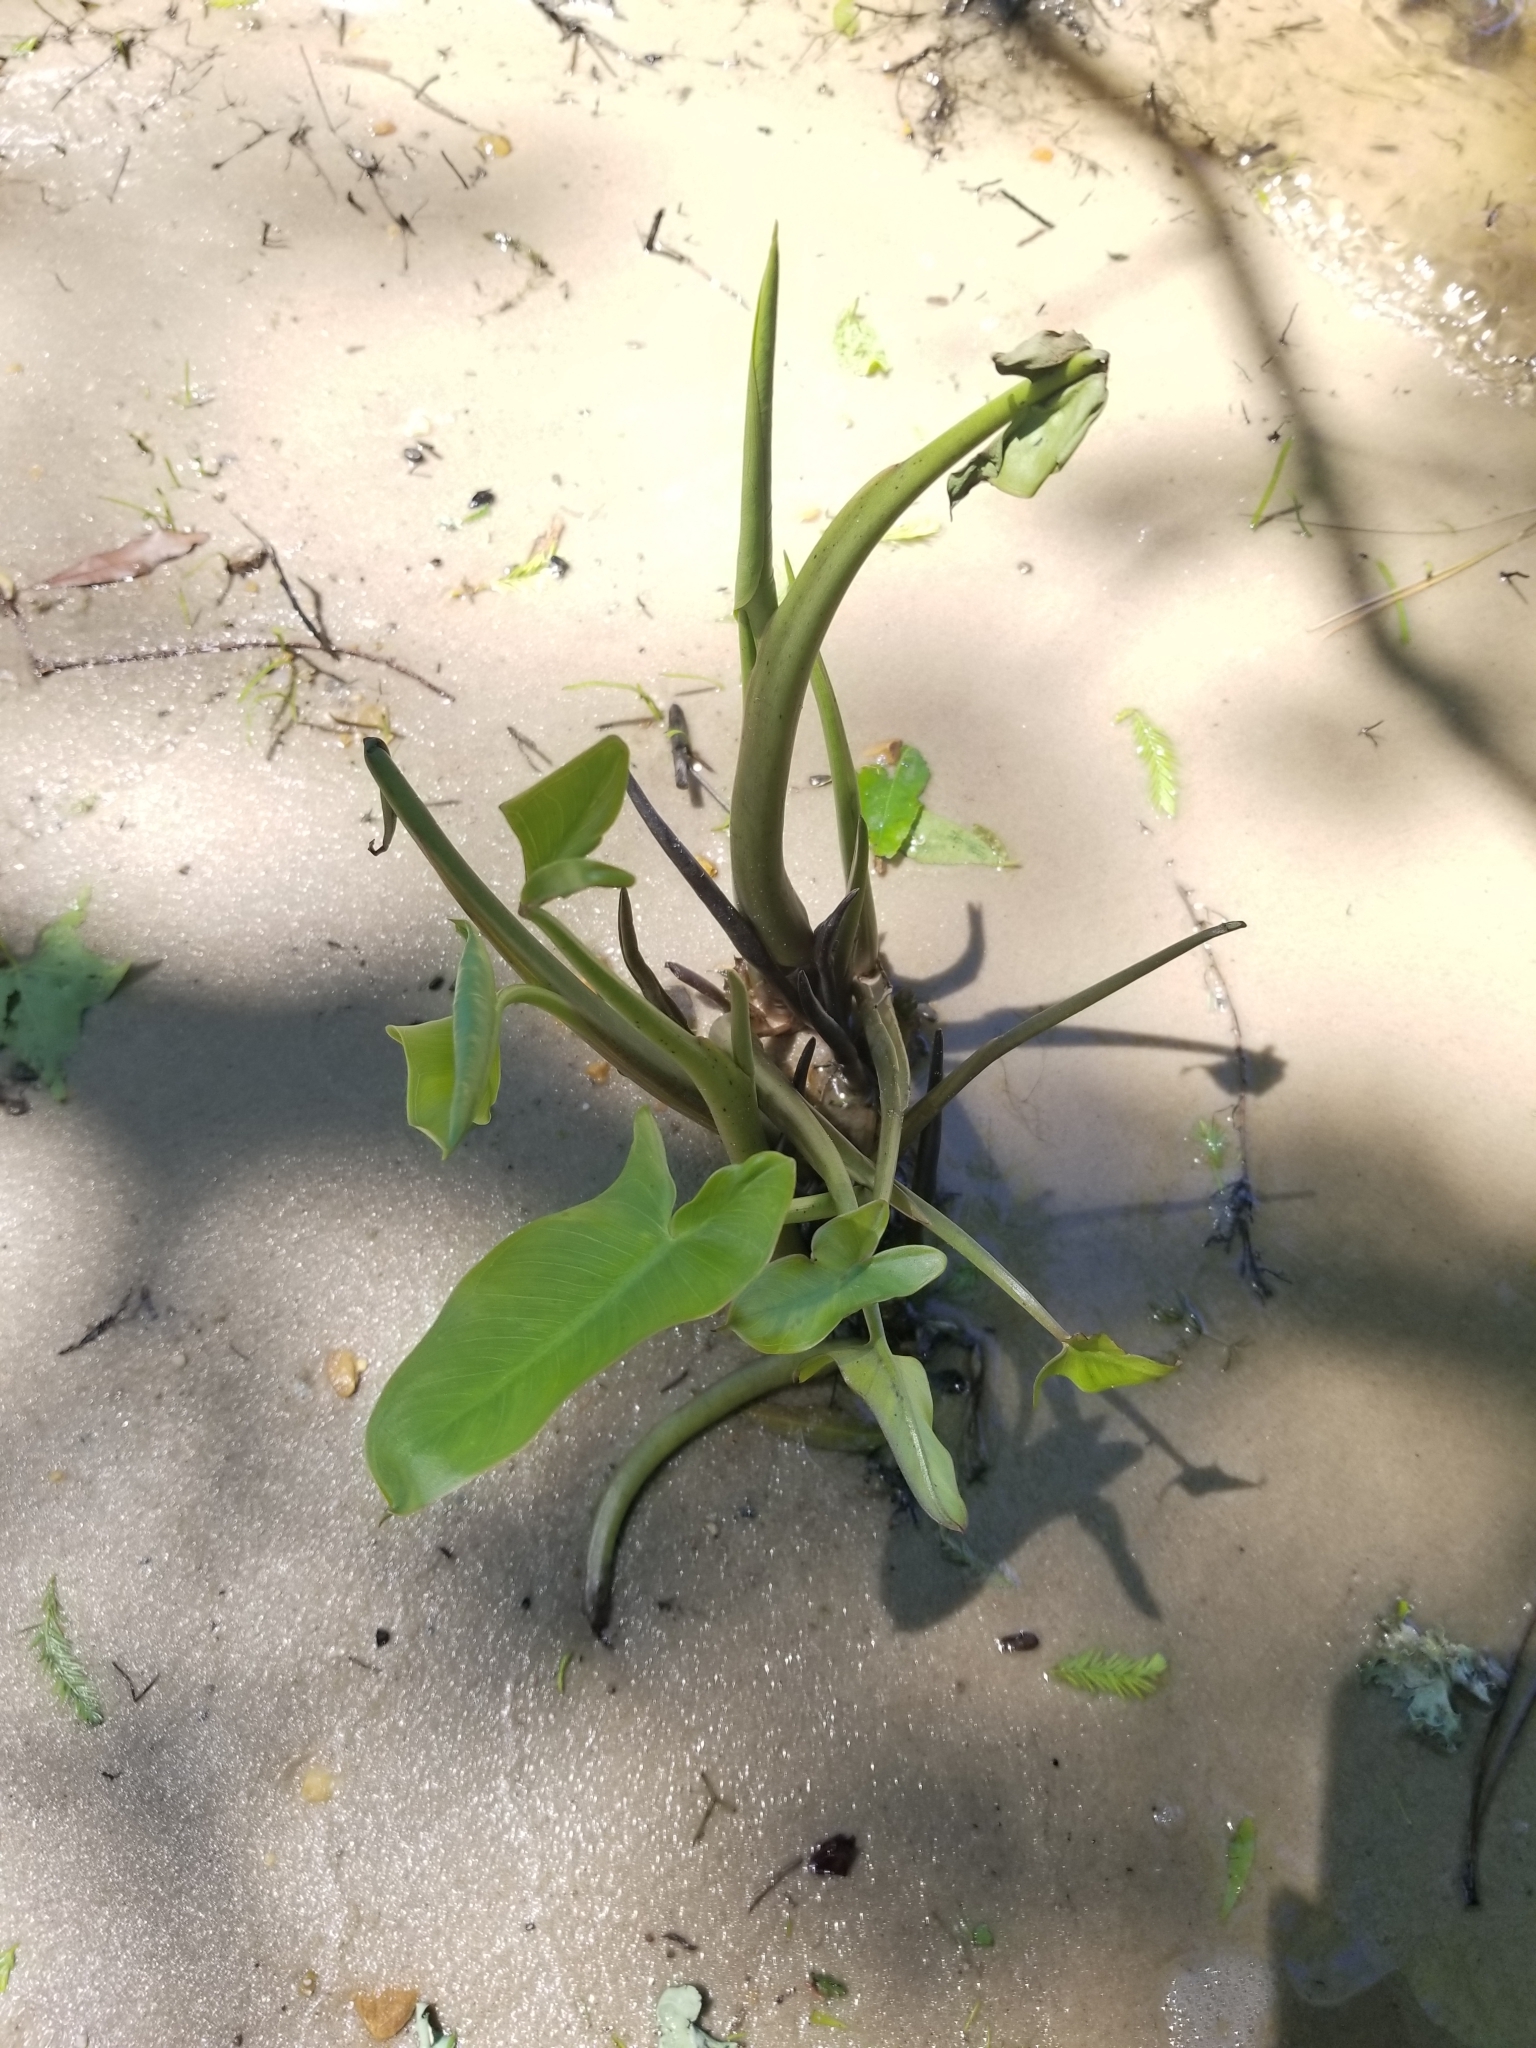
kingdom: Plantae
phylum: Tracheophyta
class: Liliopsida
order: Alismatales
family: Araceae
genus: Peltandra
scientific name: Peltandra virginica
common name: Arrow arum
